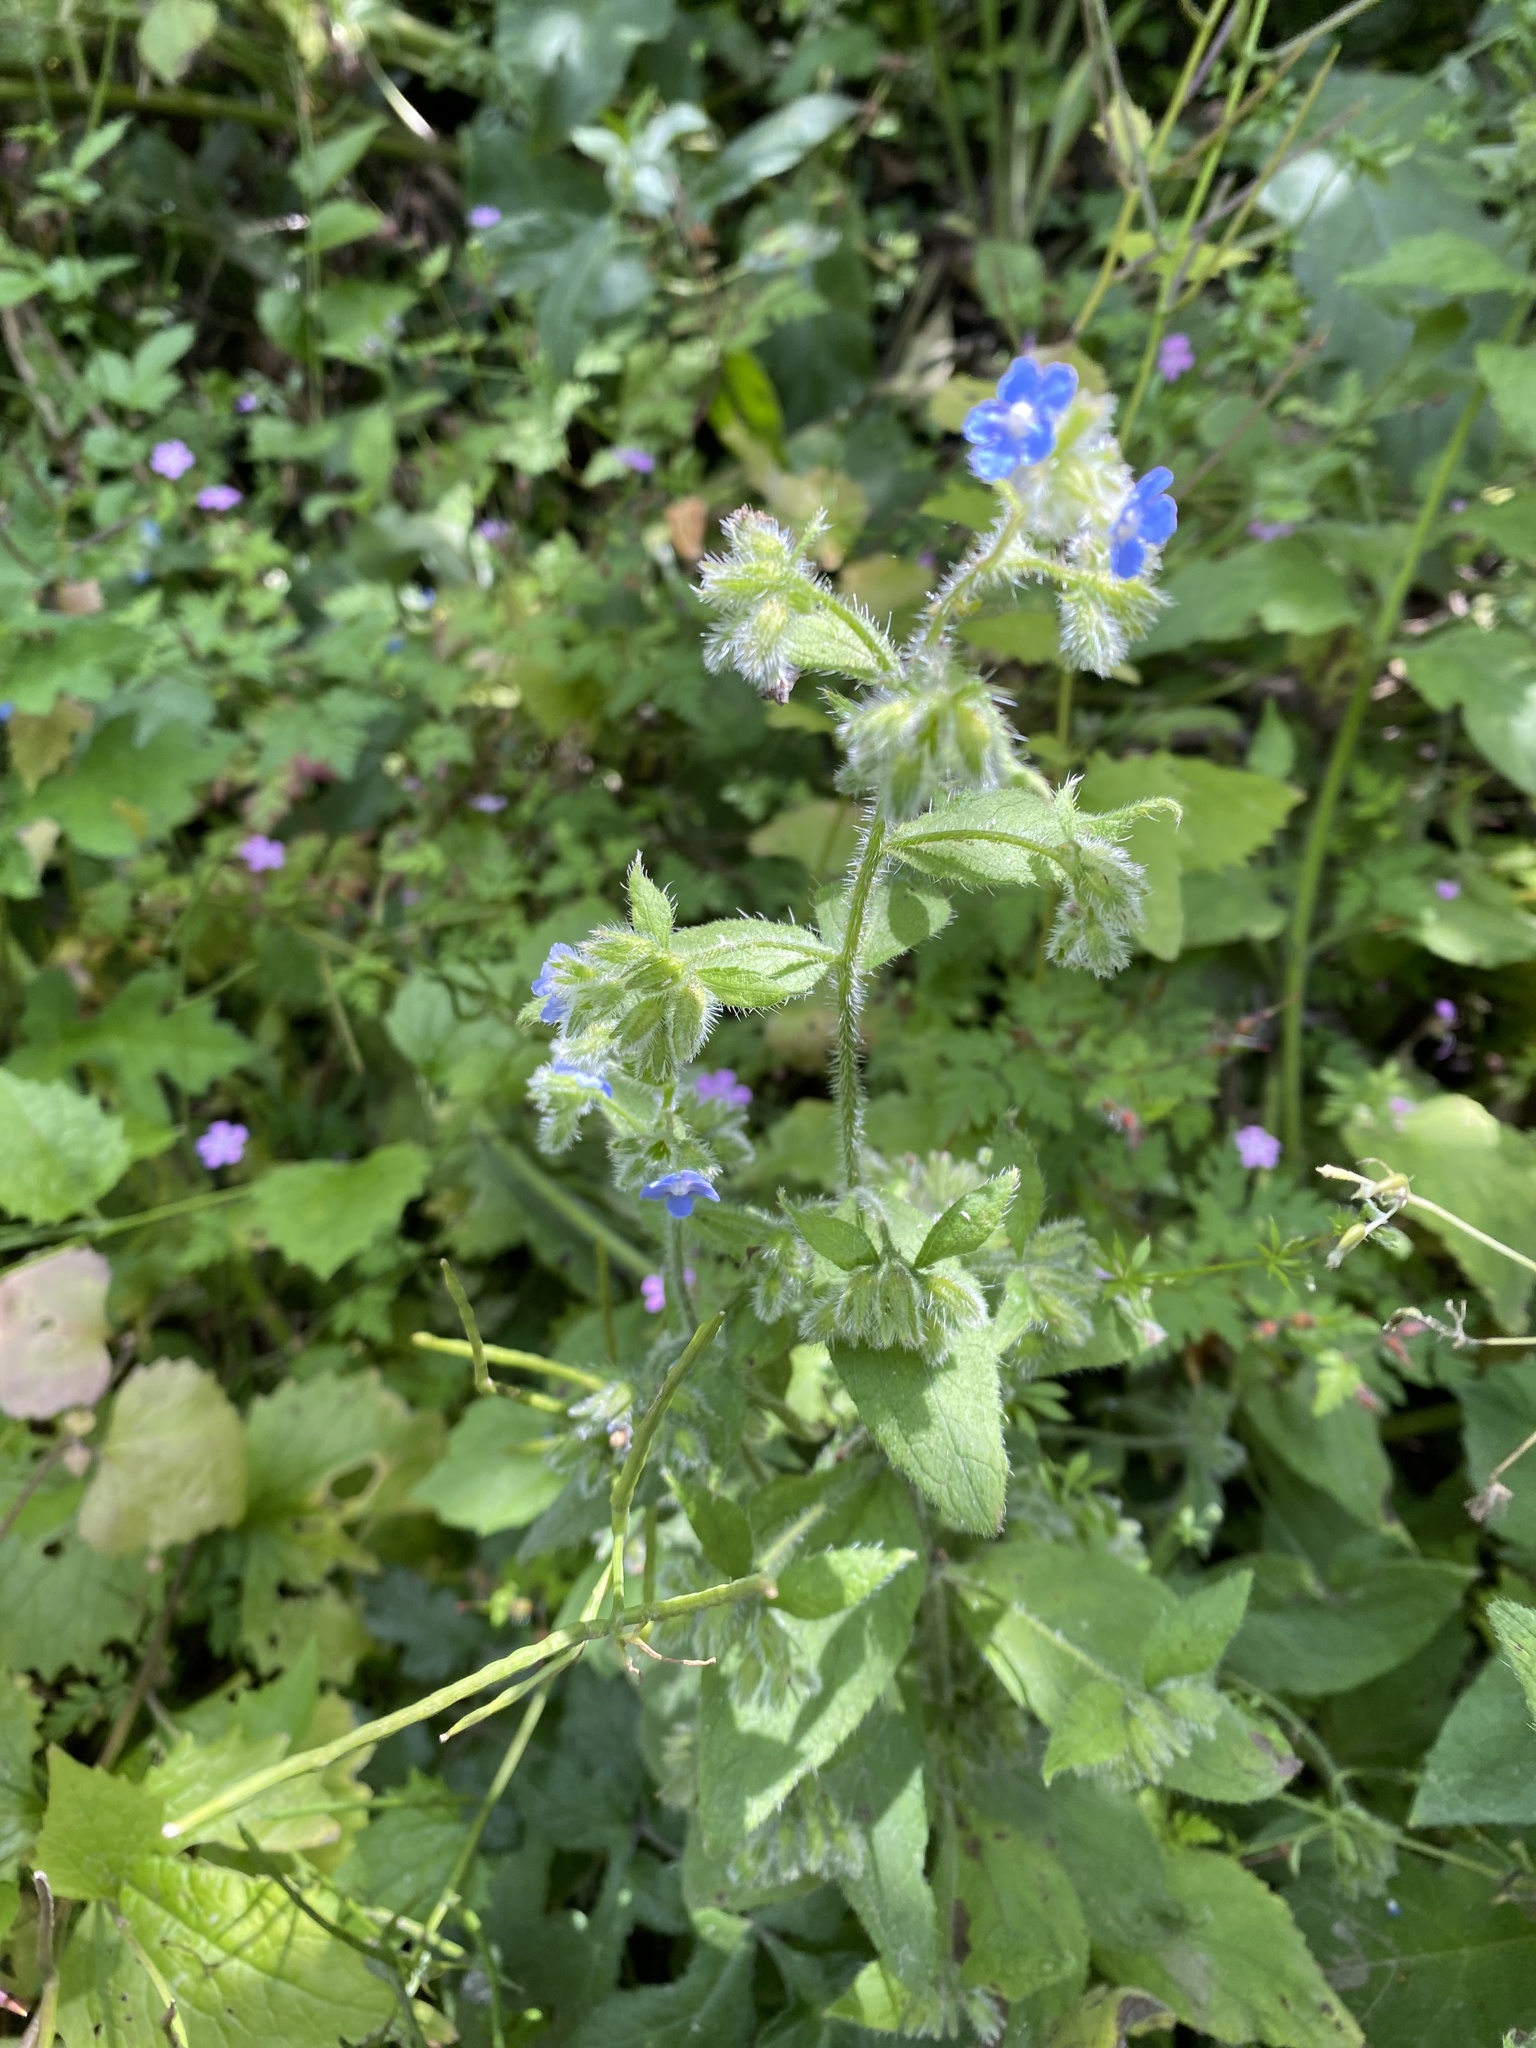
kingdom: Plantae
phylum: Tracheophyta
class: Magnoliopsida
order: Boraginales
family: Boraginaceae
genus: Pentaglottis
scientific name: Pentaglottis sempervirens
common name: Green alkanet
